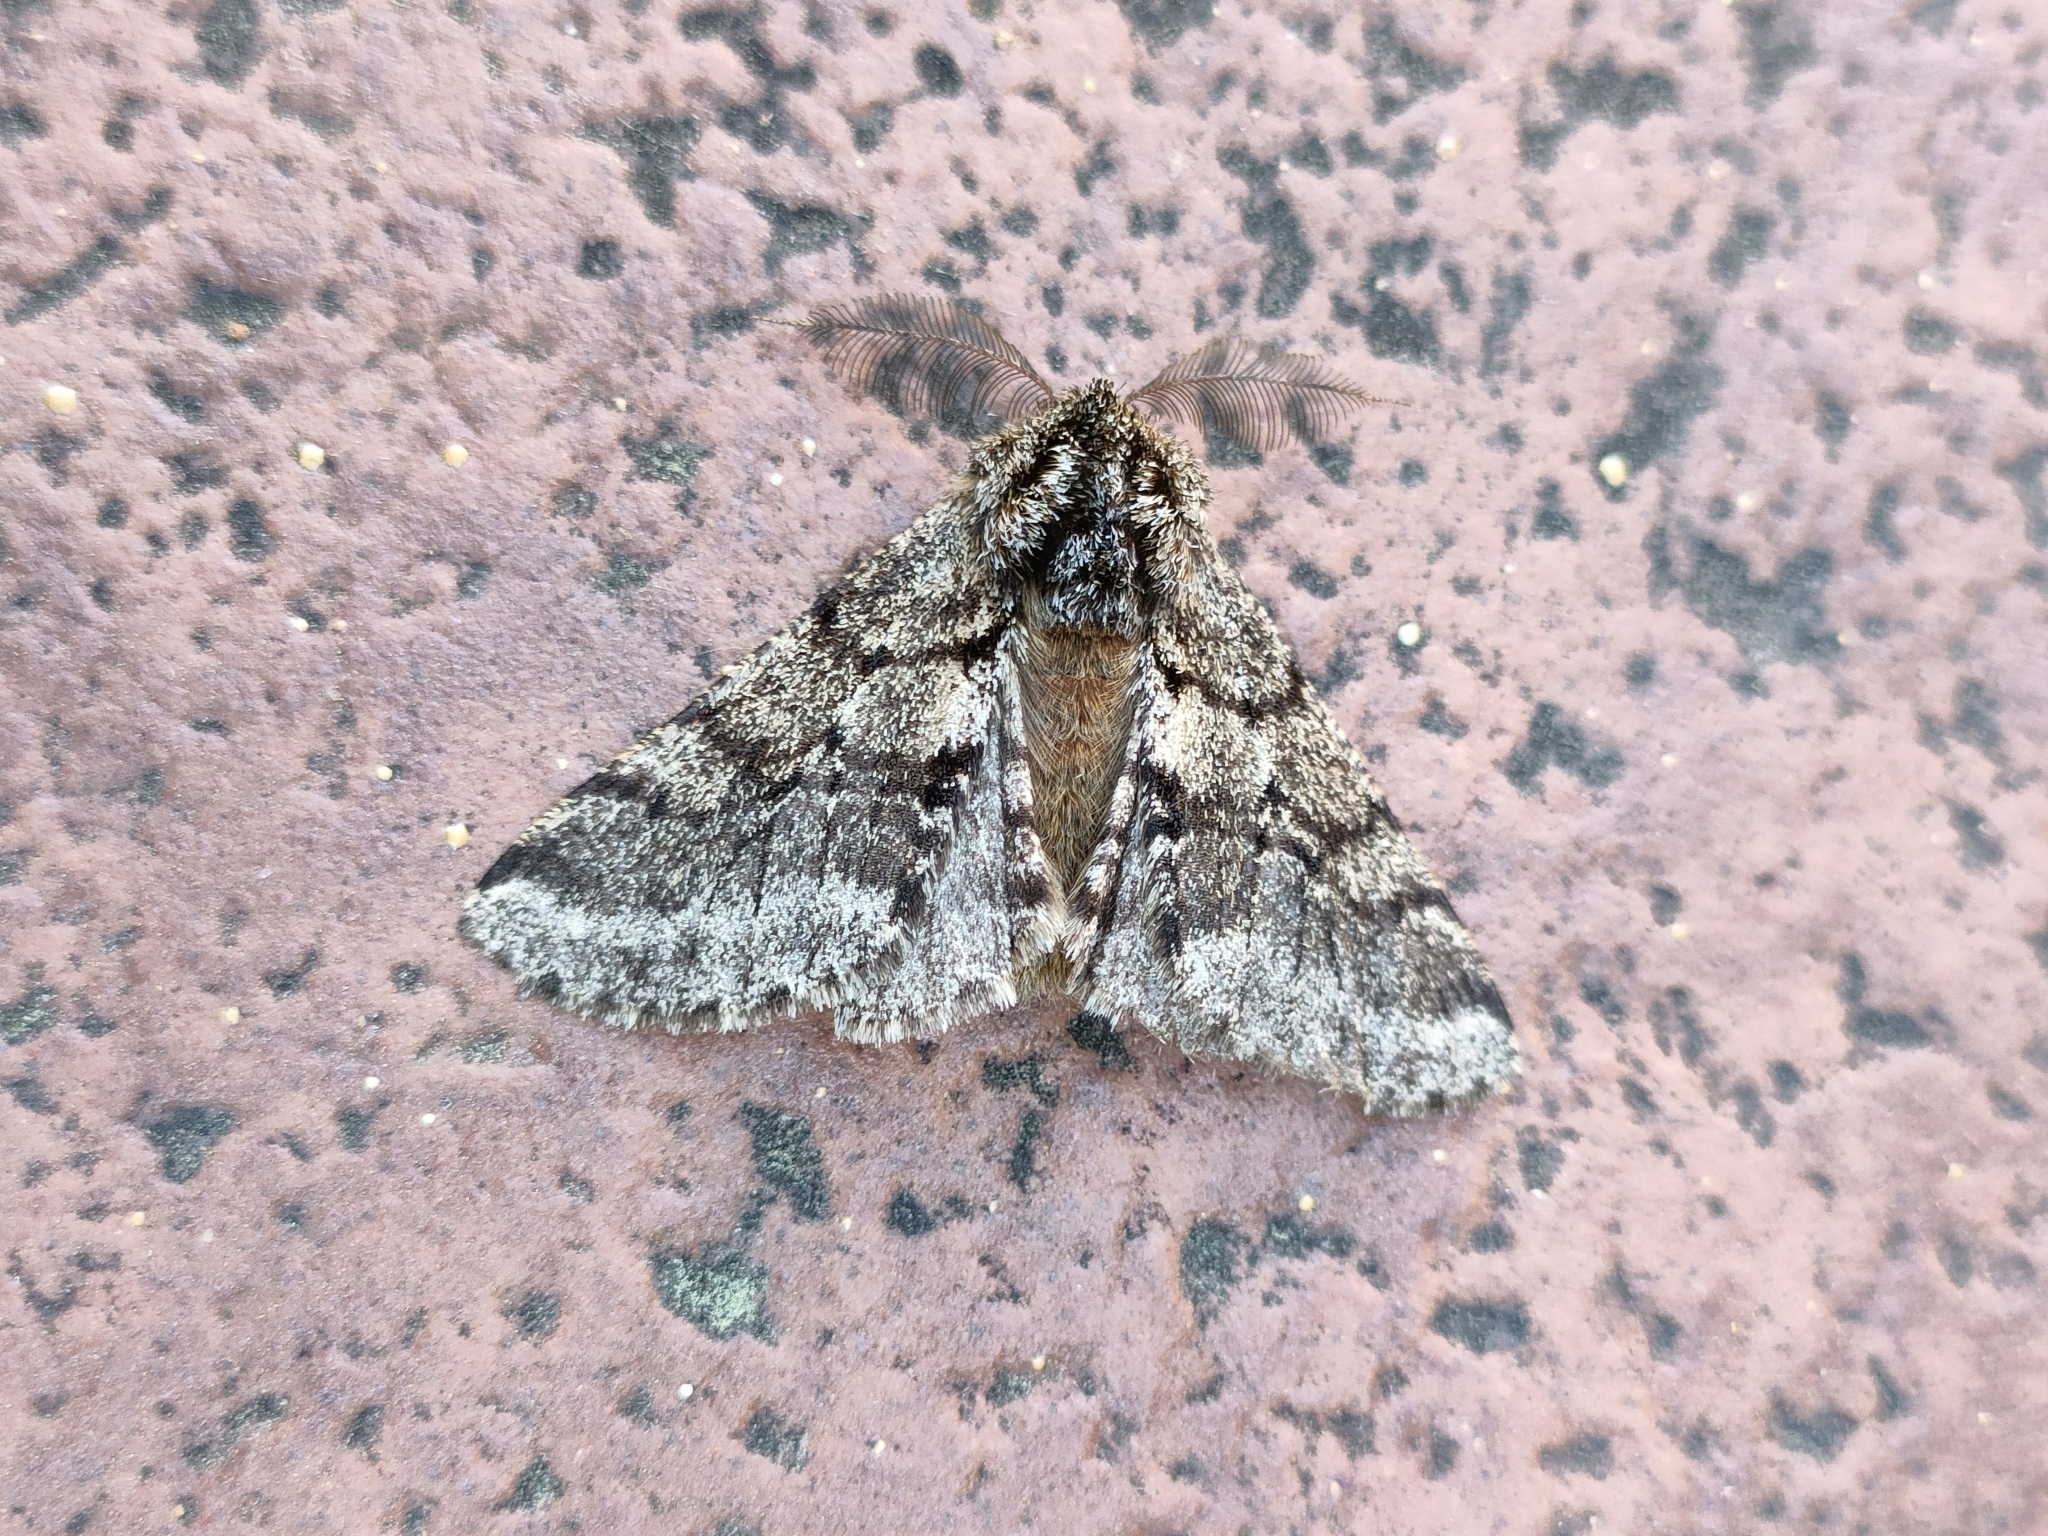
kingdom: Animalia
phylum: Arthropoda
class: Insecta
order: Lepidoptera
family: Geometridae
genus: Lycia
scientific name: Lycia hirtaria
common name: Brindled beauty
